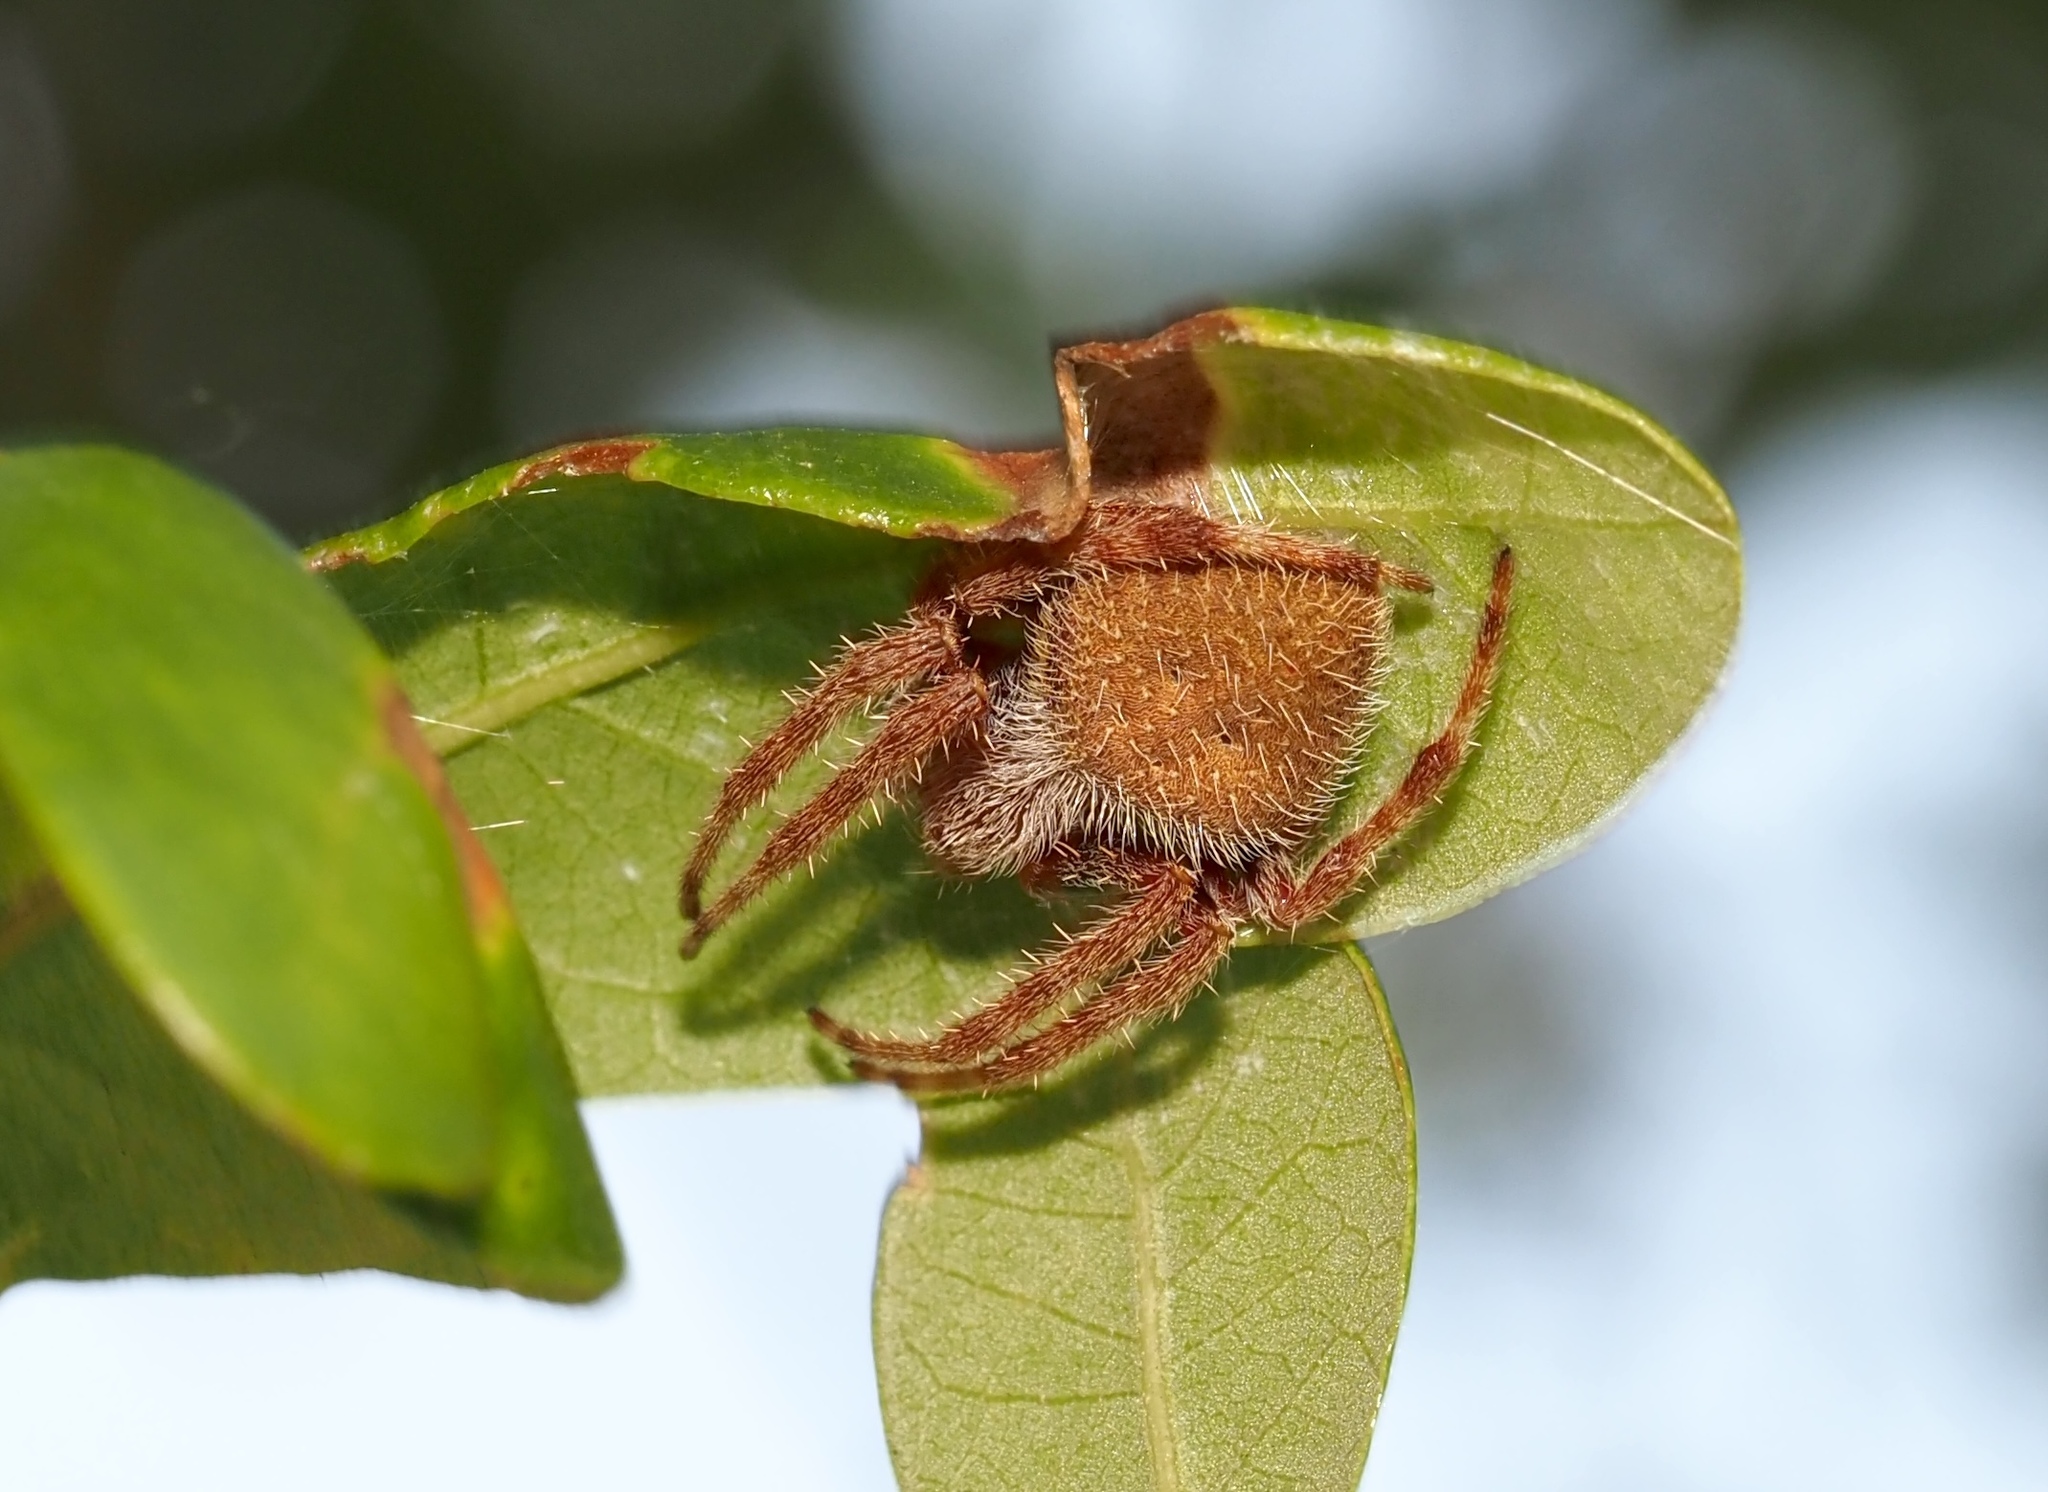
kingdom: Animalia
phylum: Arthropoda
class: Arachnida
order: Araneae
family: Araneidae
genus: Eriophora
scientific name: Eriophora ravilla
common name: Orb weavers
